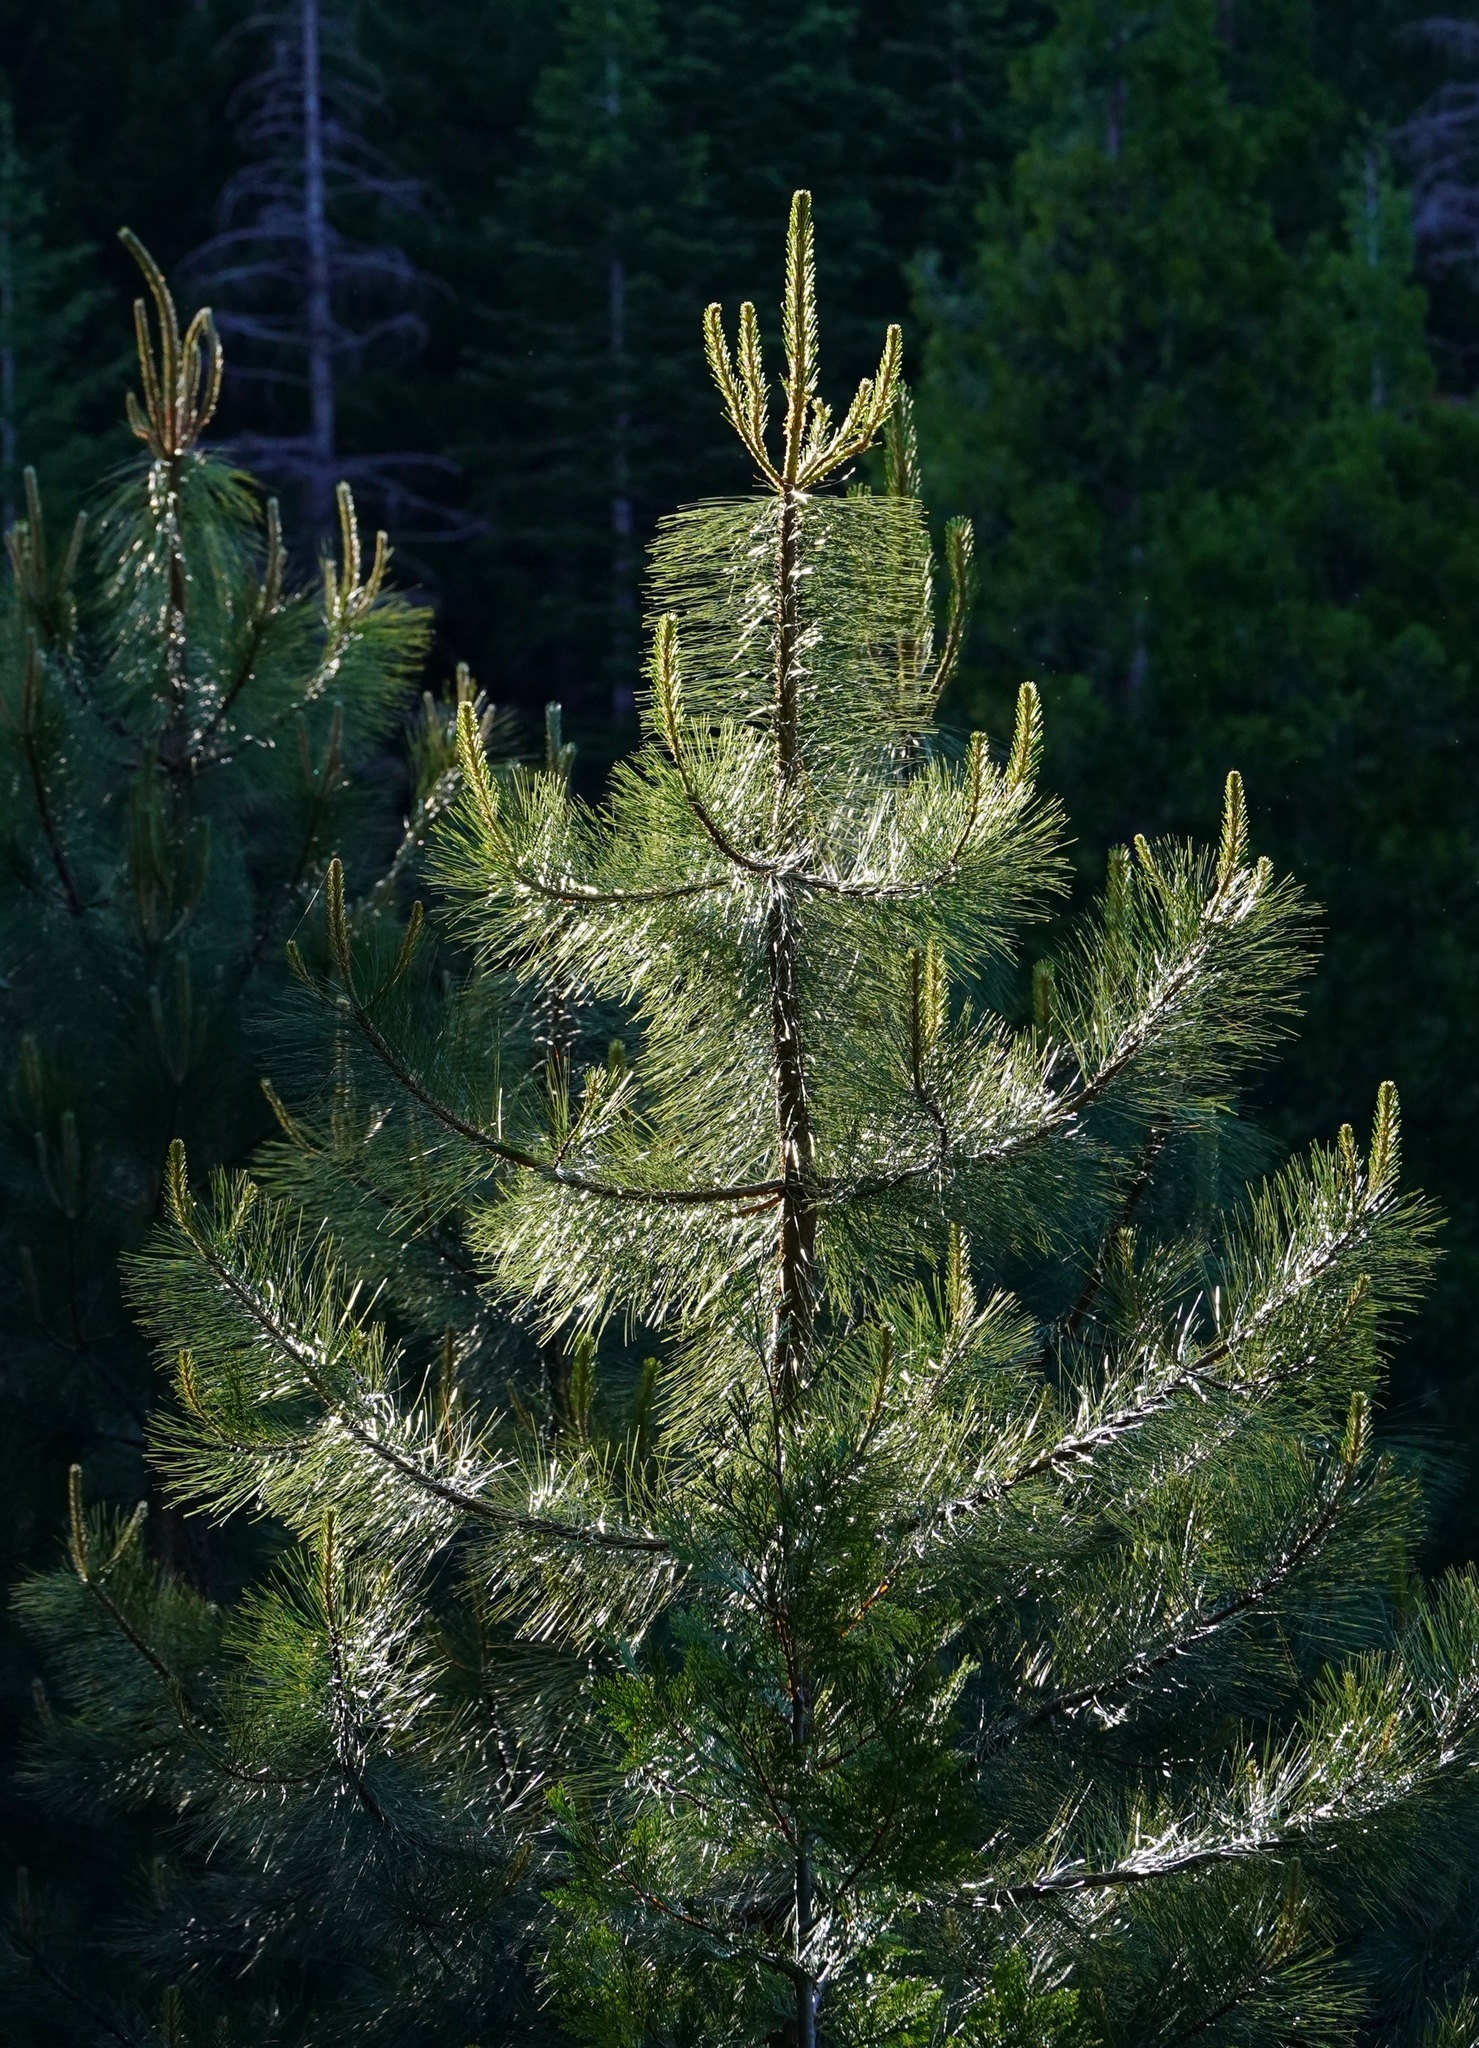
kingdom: Plantae
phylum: Tracheophyta
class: Pinopsida
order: Pinales
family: Pinaceae
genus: Pinus
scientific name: Pinus ponderosa
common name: Western yellow-pine
